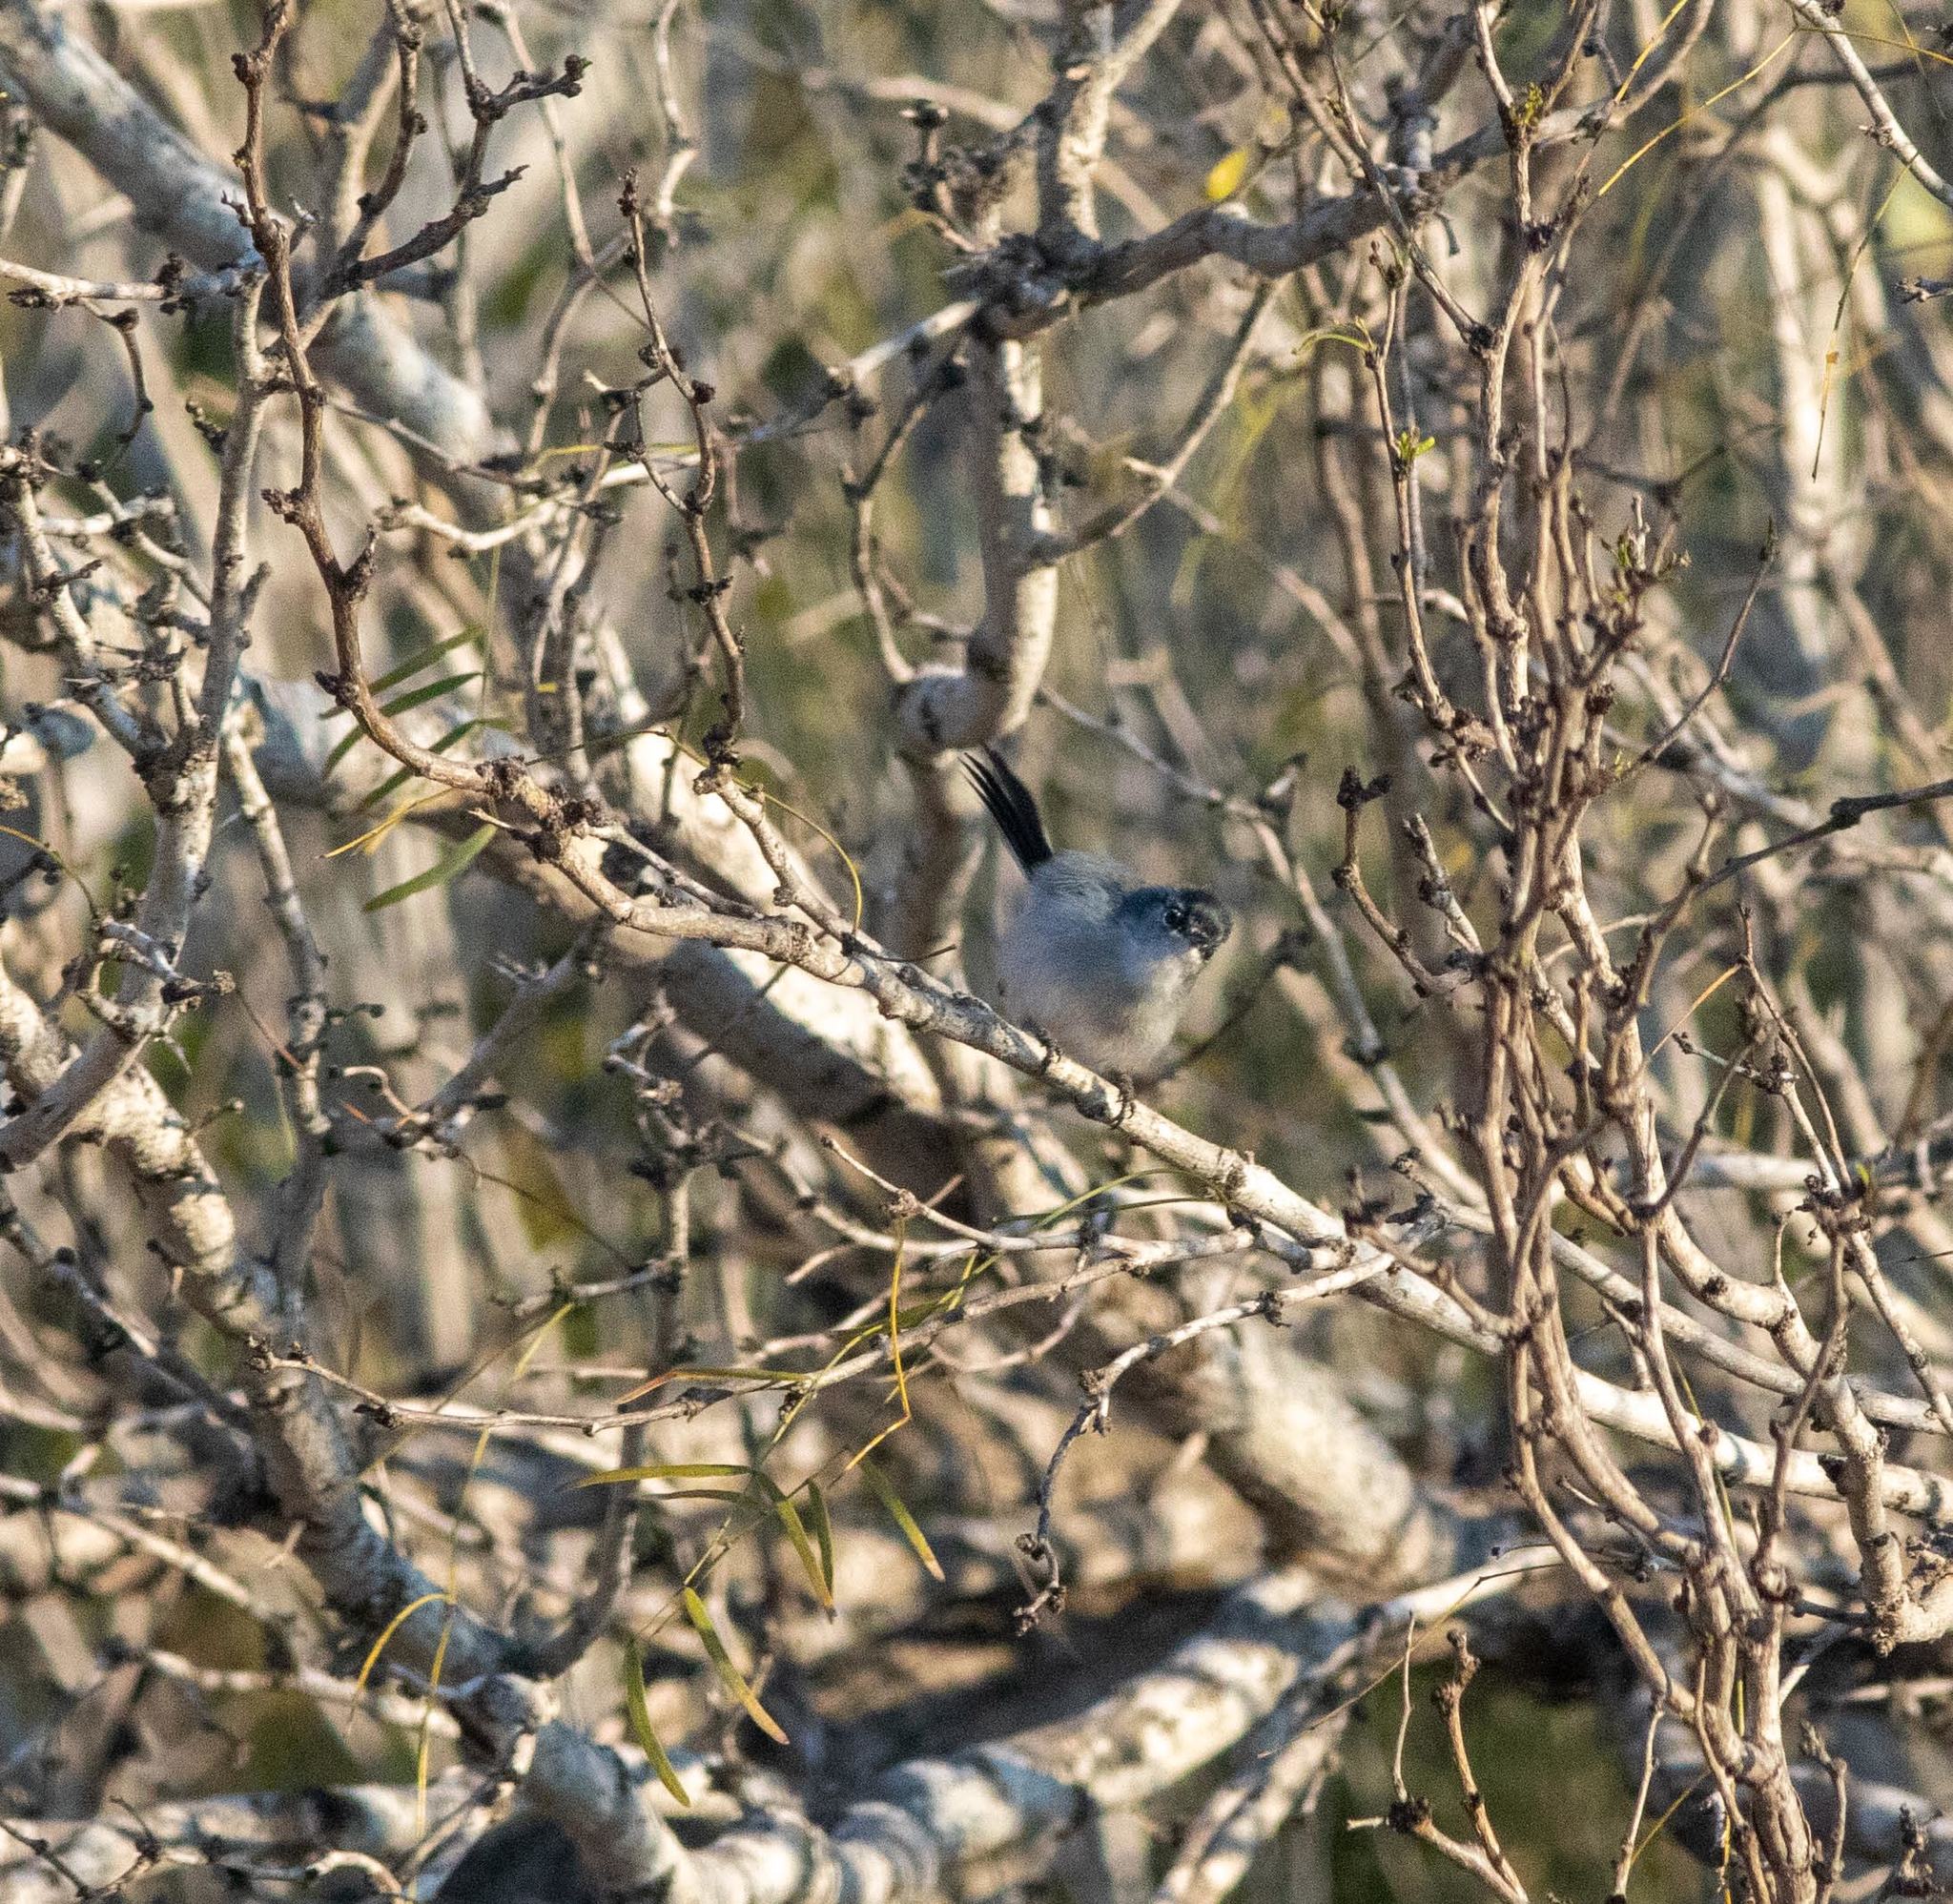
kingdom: Animalia
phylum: Chordata
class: Aves
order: Passeriformes
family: Polioptilidae
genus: Polioptila
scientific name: Polioptila melanura
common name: Black-tailed gnatcatcher
